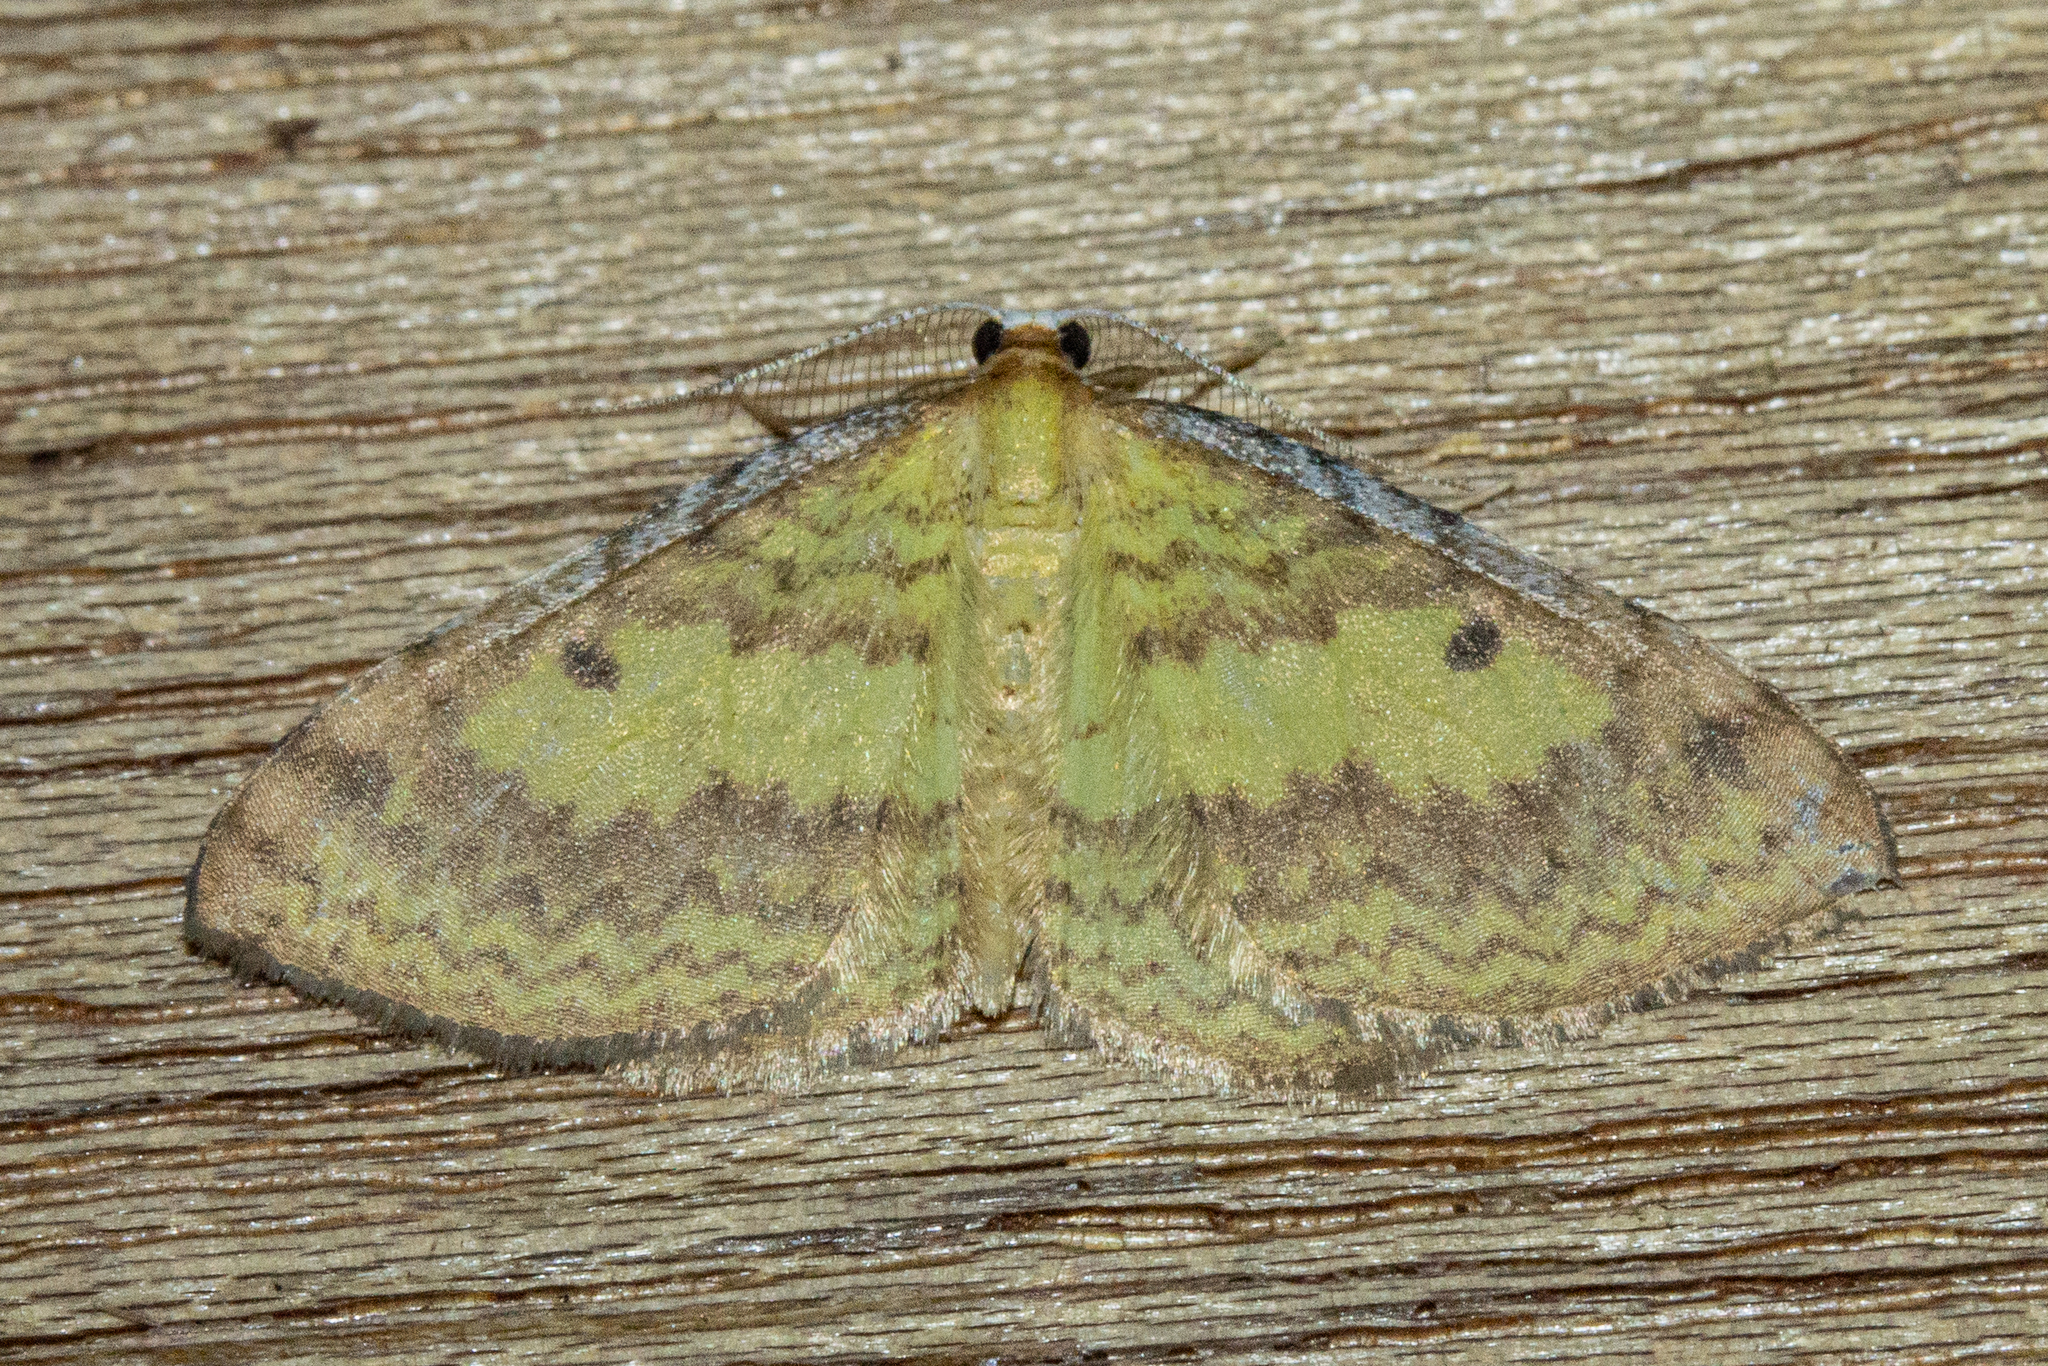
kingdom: Animalia
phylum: Arthropoda
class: Insecta
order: Lepidoptera
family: Geometridae
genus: Epiphryne
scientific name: Epiphryne undosata
